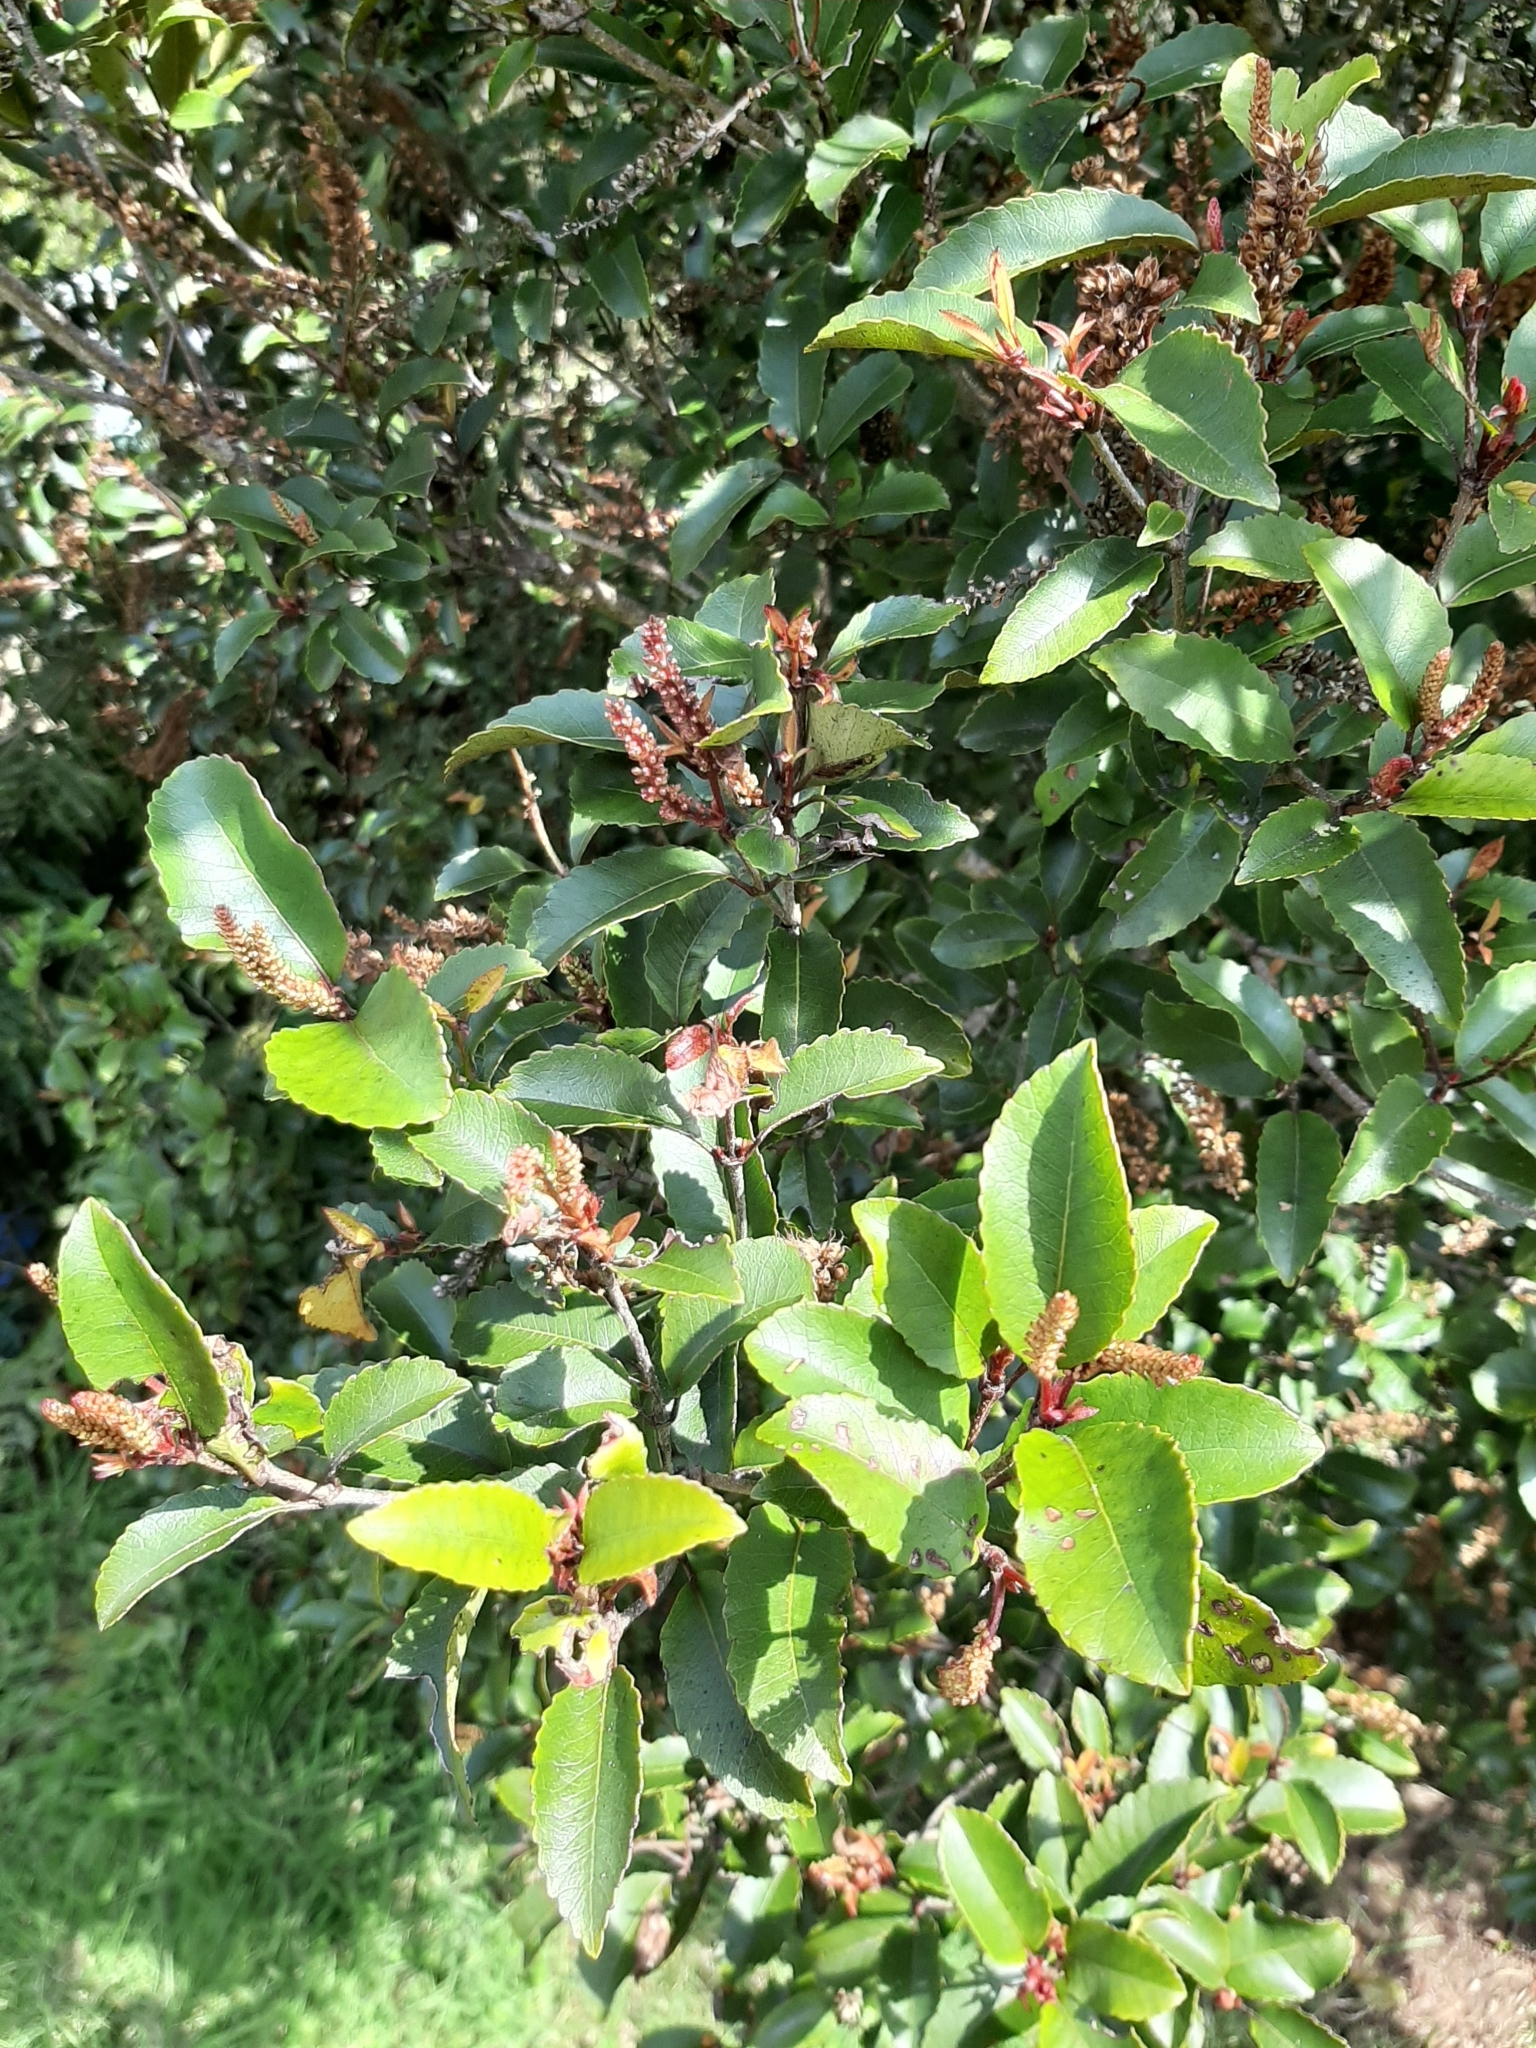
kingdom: Plantae
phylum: Tracheophyta
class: Magnoliopsida
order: Oxalidales
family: Cunoniaceae
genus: Pterophylla
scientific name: Pterophylla racemosa
